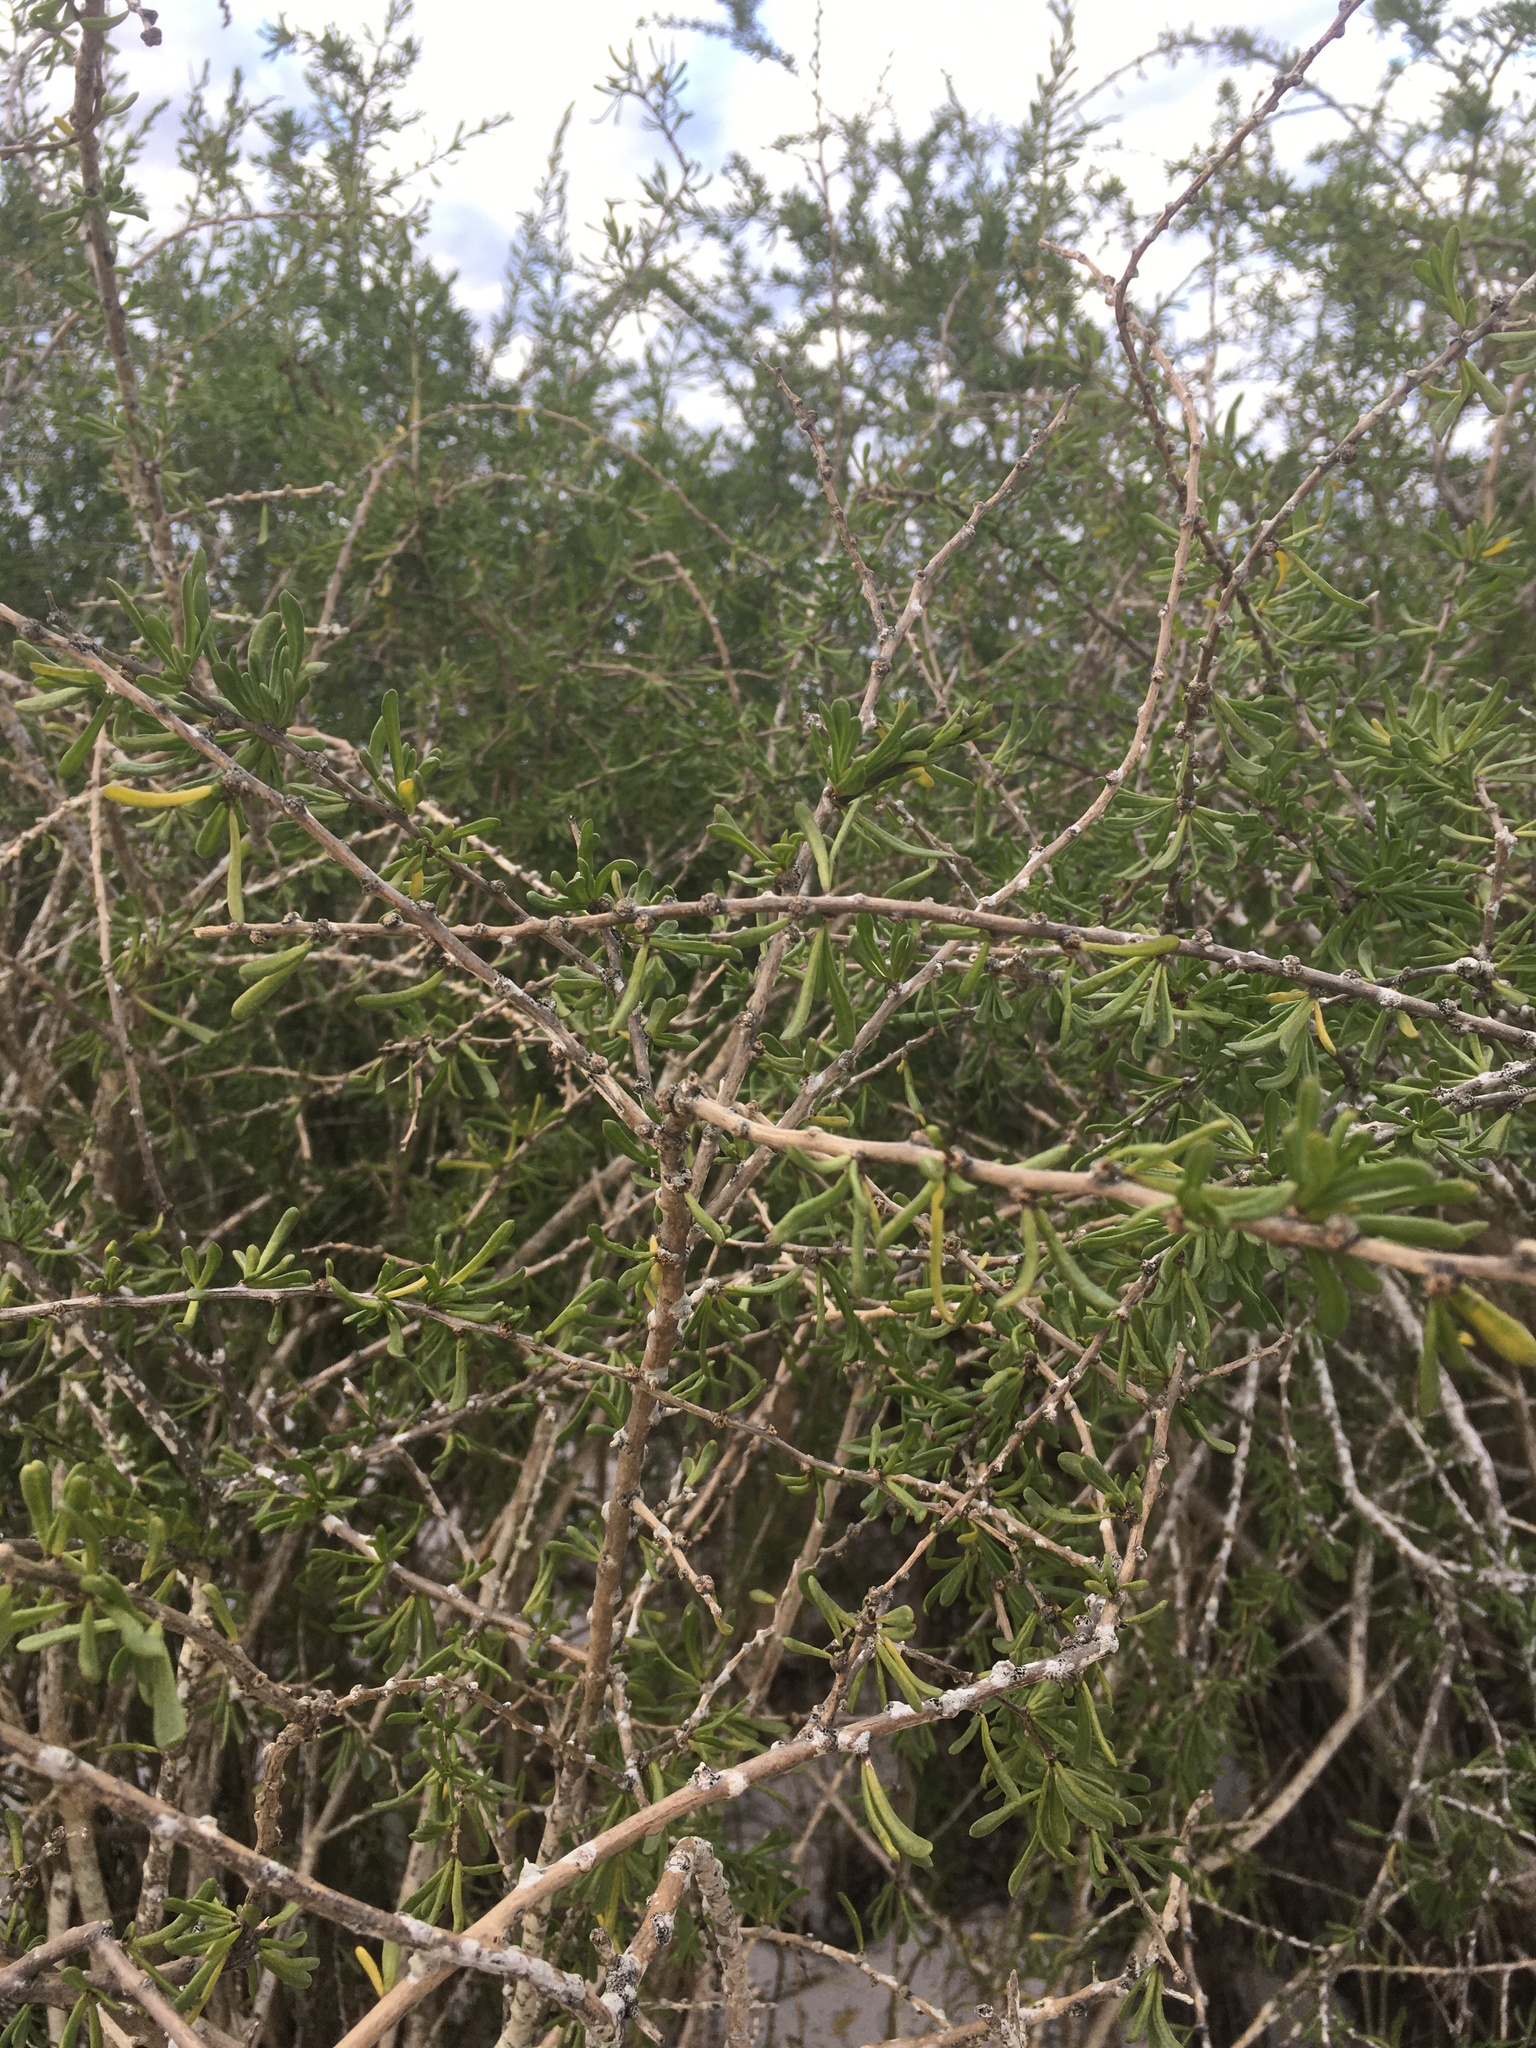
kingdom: Plantae
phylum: Tracheophyta
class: Magnoliopsida
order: Solanales
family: Solanaceae
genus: Lycium
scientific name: Lycium carolinianum
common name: Christmasberry
